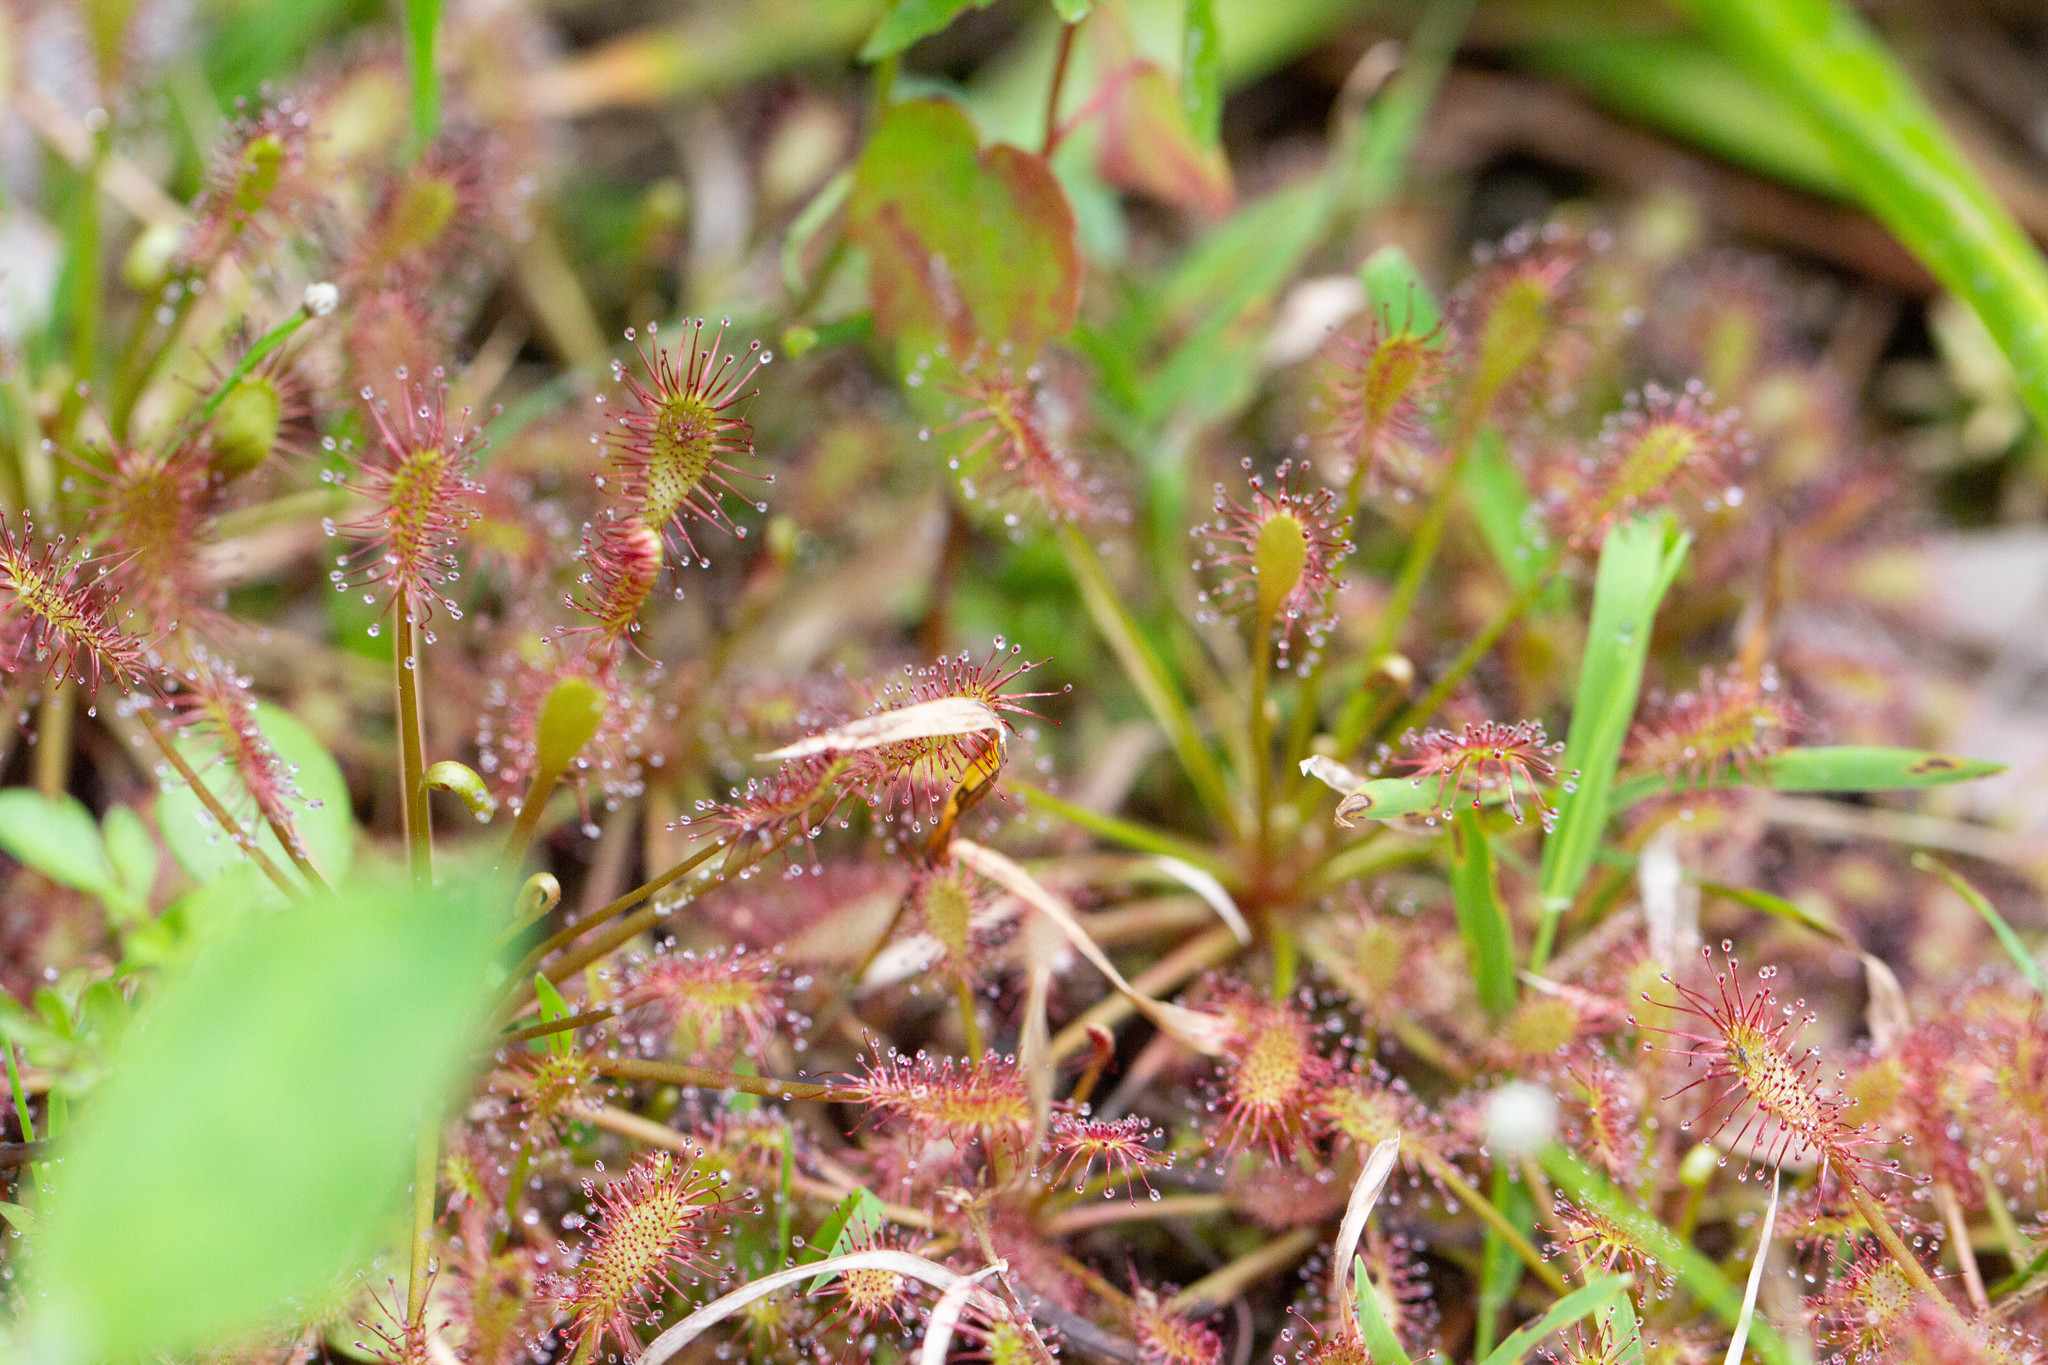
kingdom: Plantae
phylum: Tracheophyta
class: Magnoliopsida
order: Caryophyllales
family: Droseraceae
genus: Drosera
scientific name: Drosera intermedia
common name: Oblong-leaved sundew
